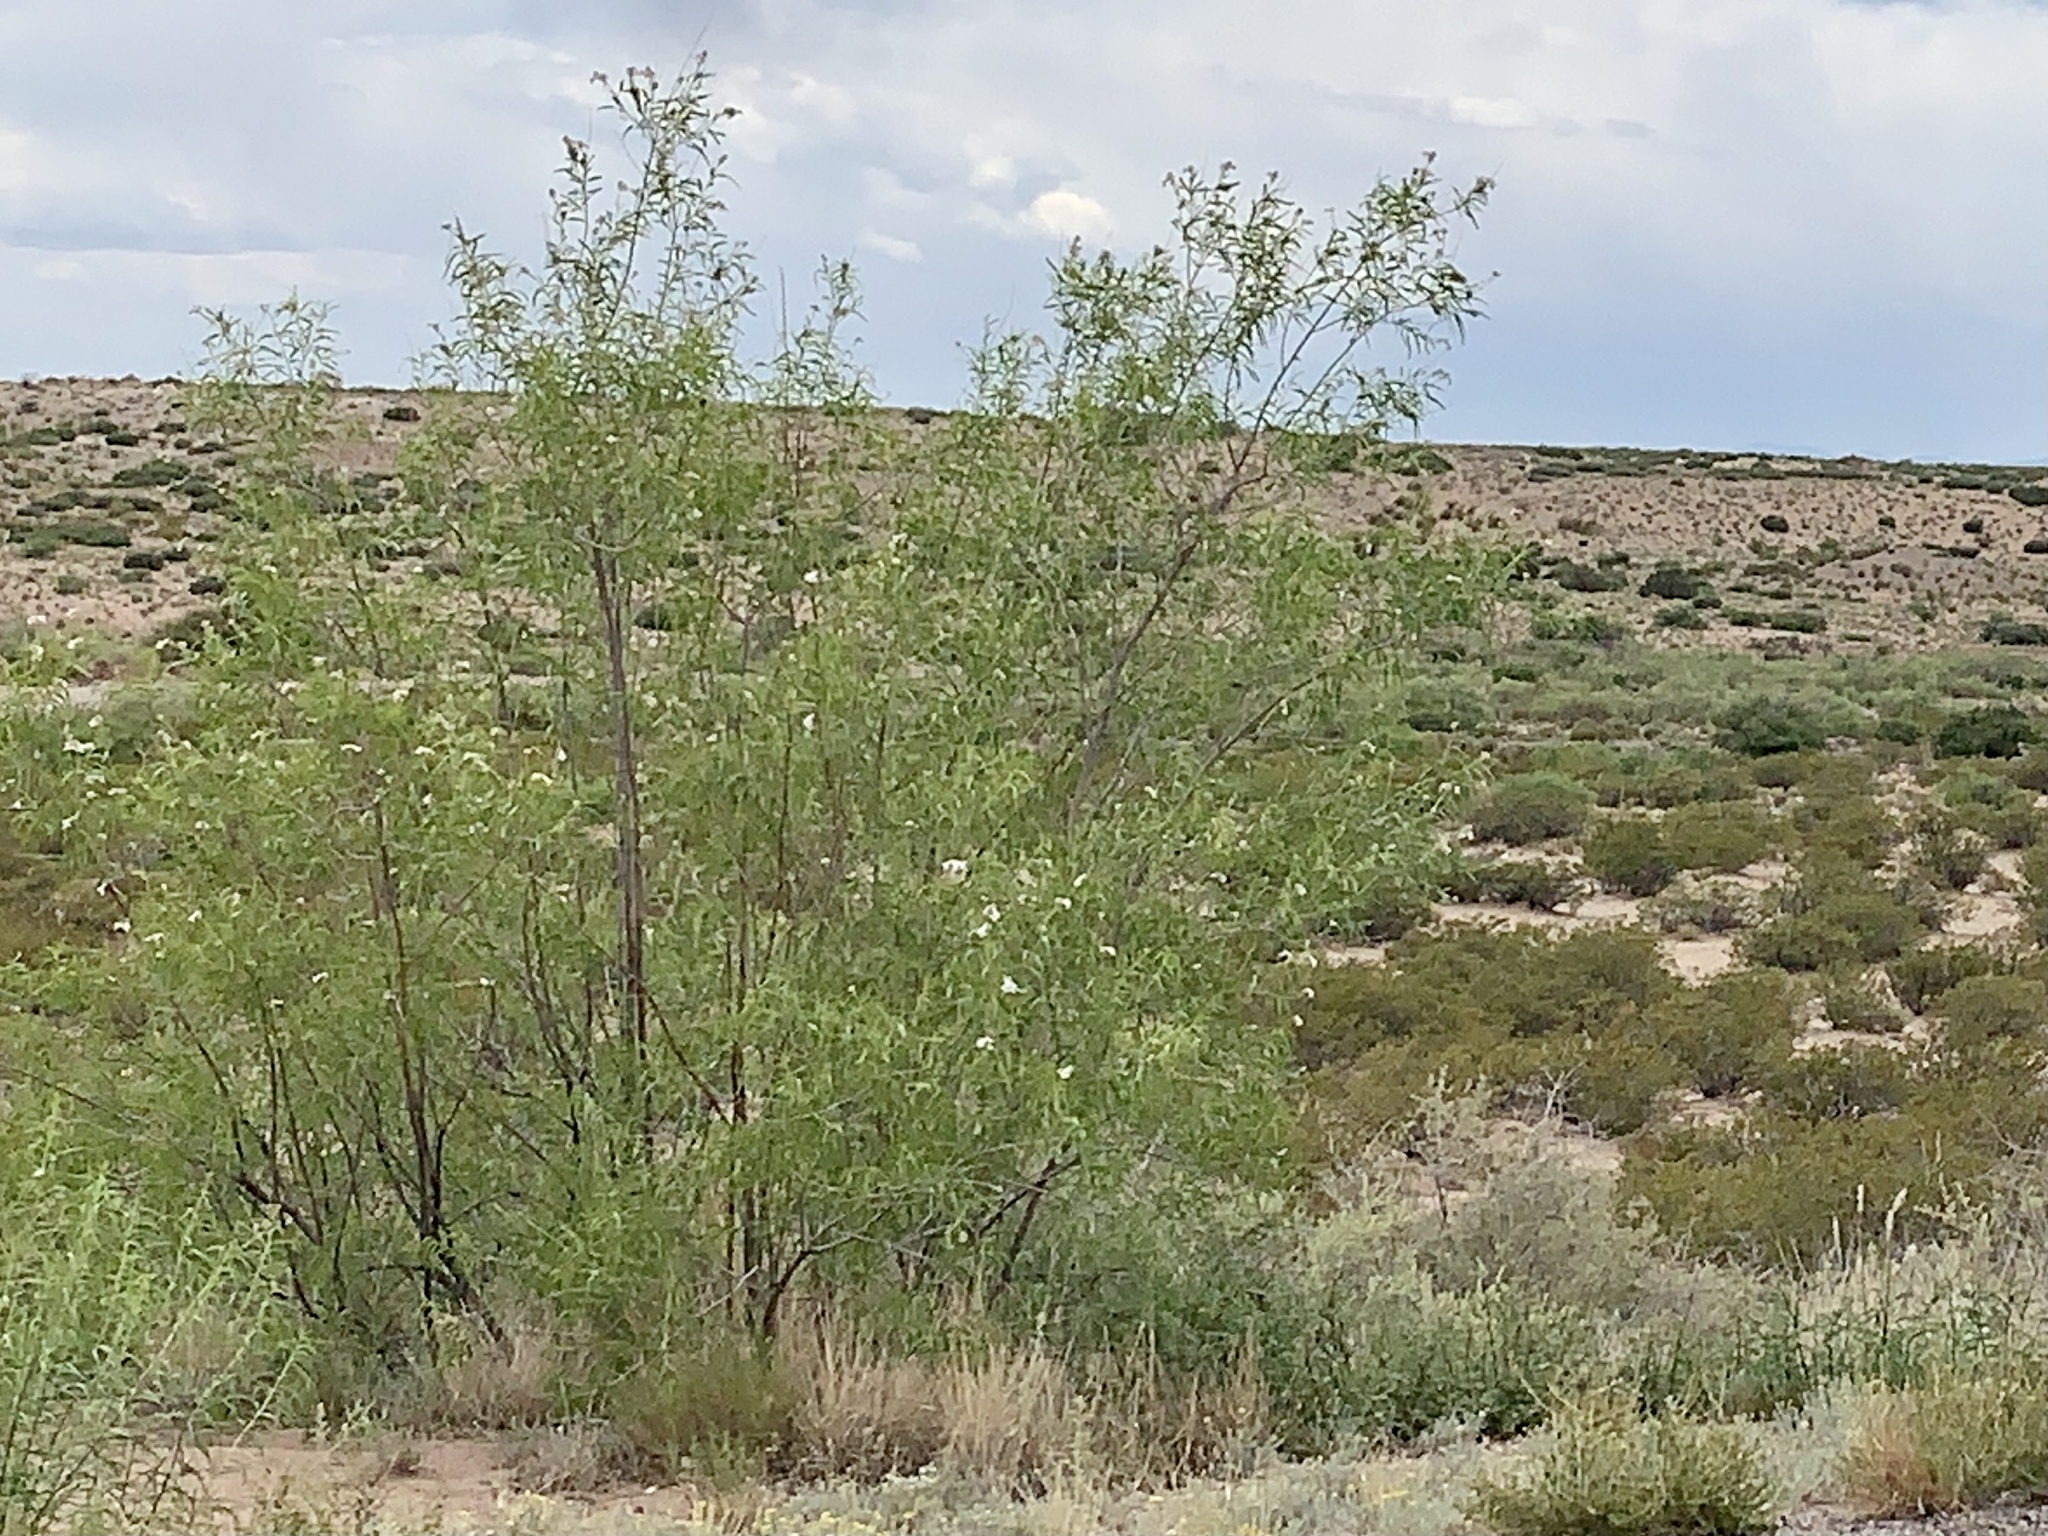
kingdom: Plantae
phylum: Tracheophyta
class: Magnoliopsida
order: Lamiales
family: Bignoniaceae
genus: Chilopsis
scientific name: Chilopsis linearis
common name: Desert-willow
